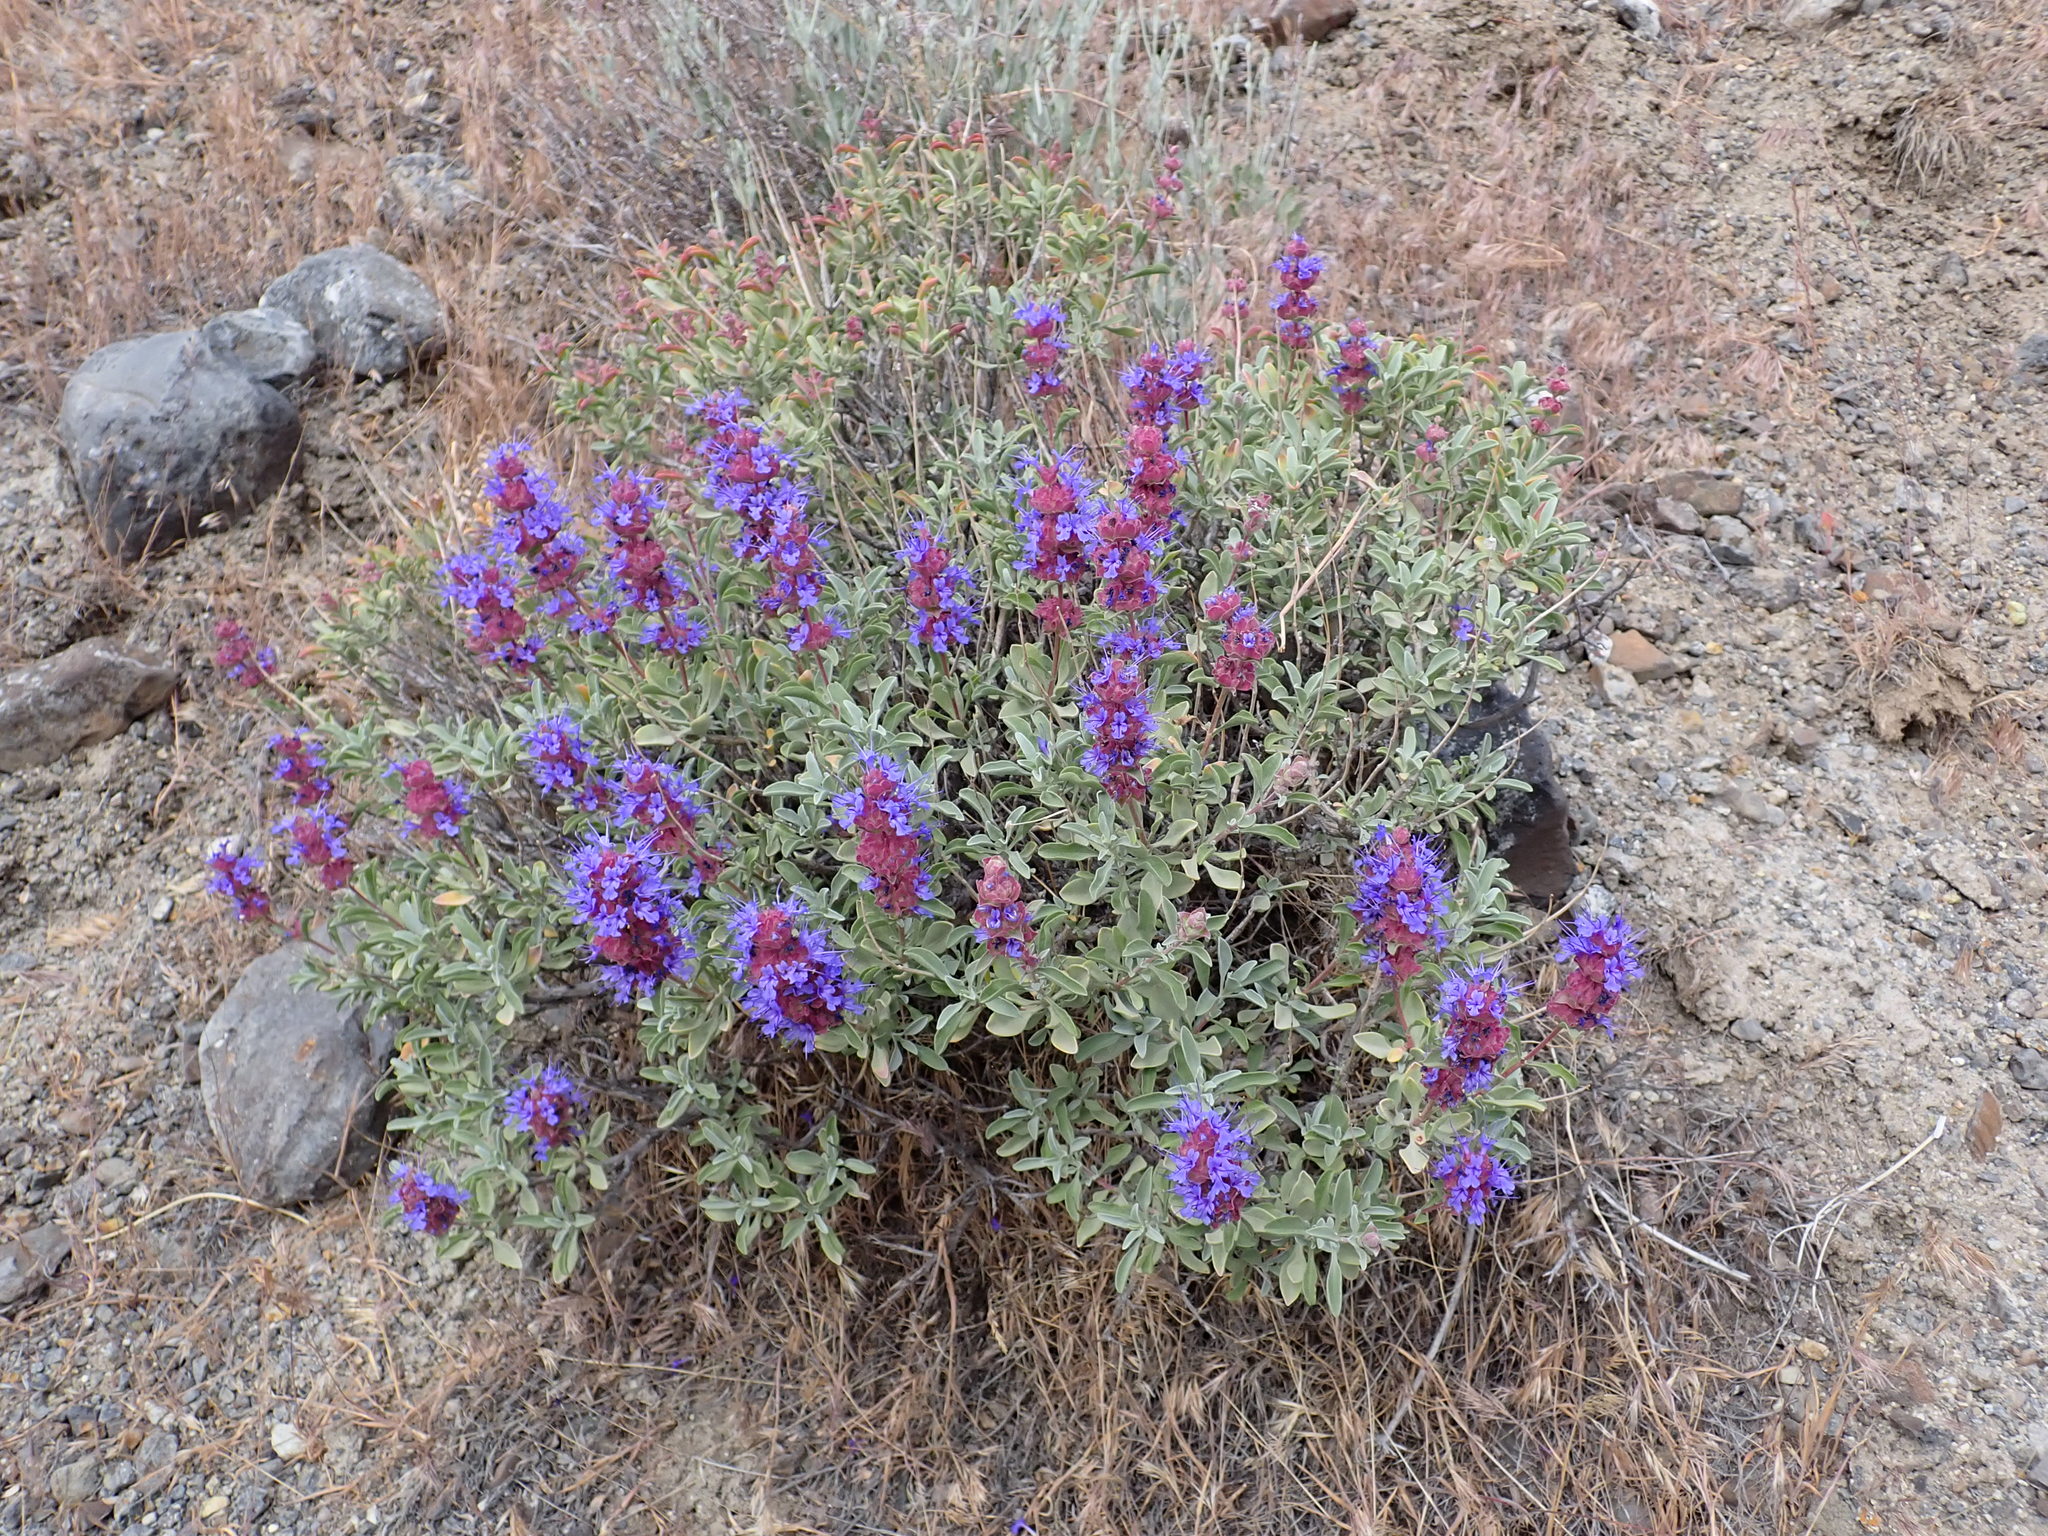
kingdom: Plantae
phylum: Tracheophyta
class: Magnoliopsida
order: Lamiales
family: Lamiaceae
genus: Salvia
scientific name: Salvia dorrii
